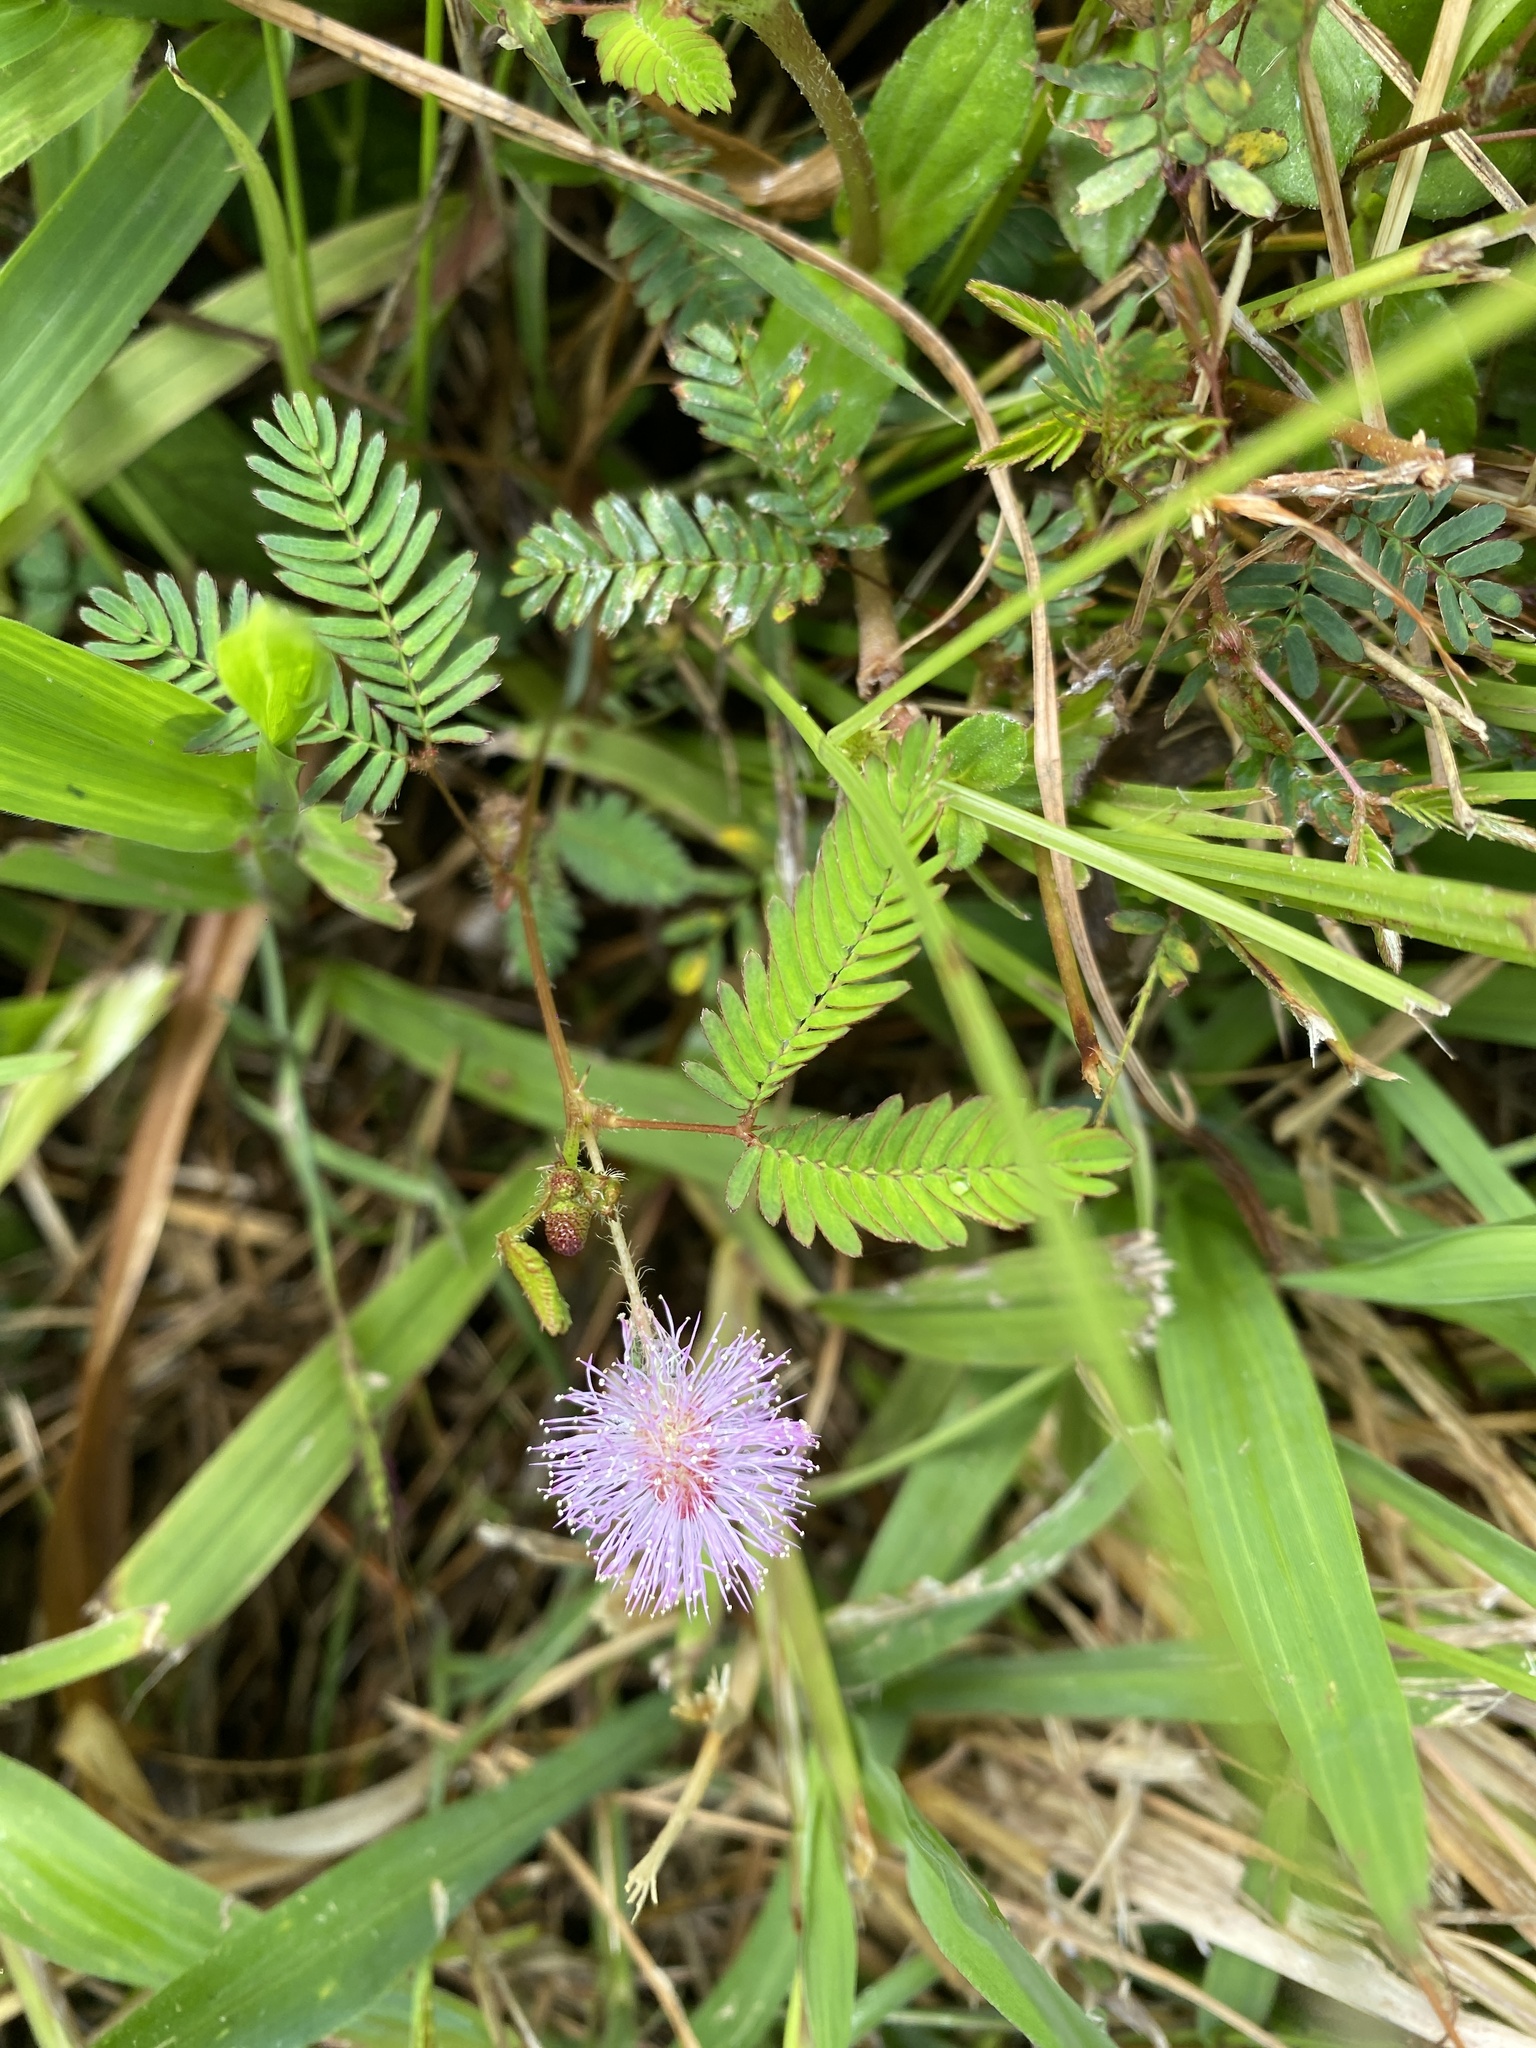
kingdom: Plantae
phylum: Tracheophyta
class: Magnoliopsida
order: Fabales
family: Fabaceae
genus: Mimosa
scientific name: Mimosa pudica
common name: Sensitive plant
